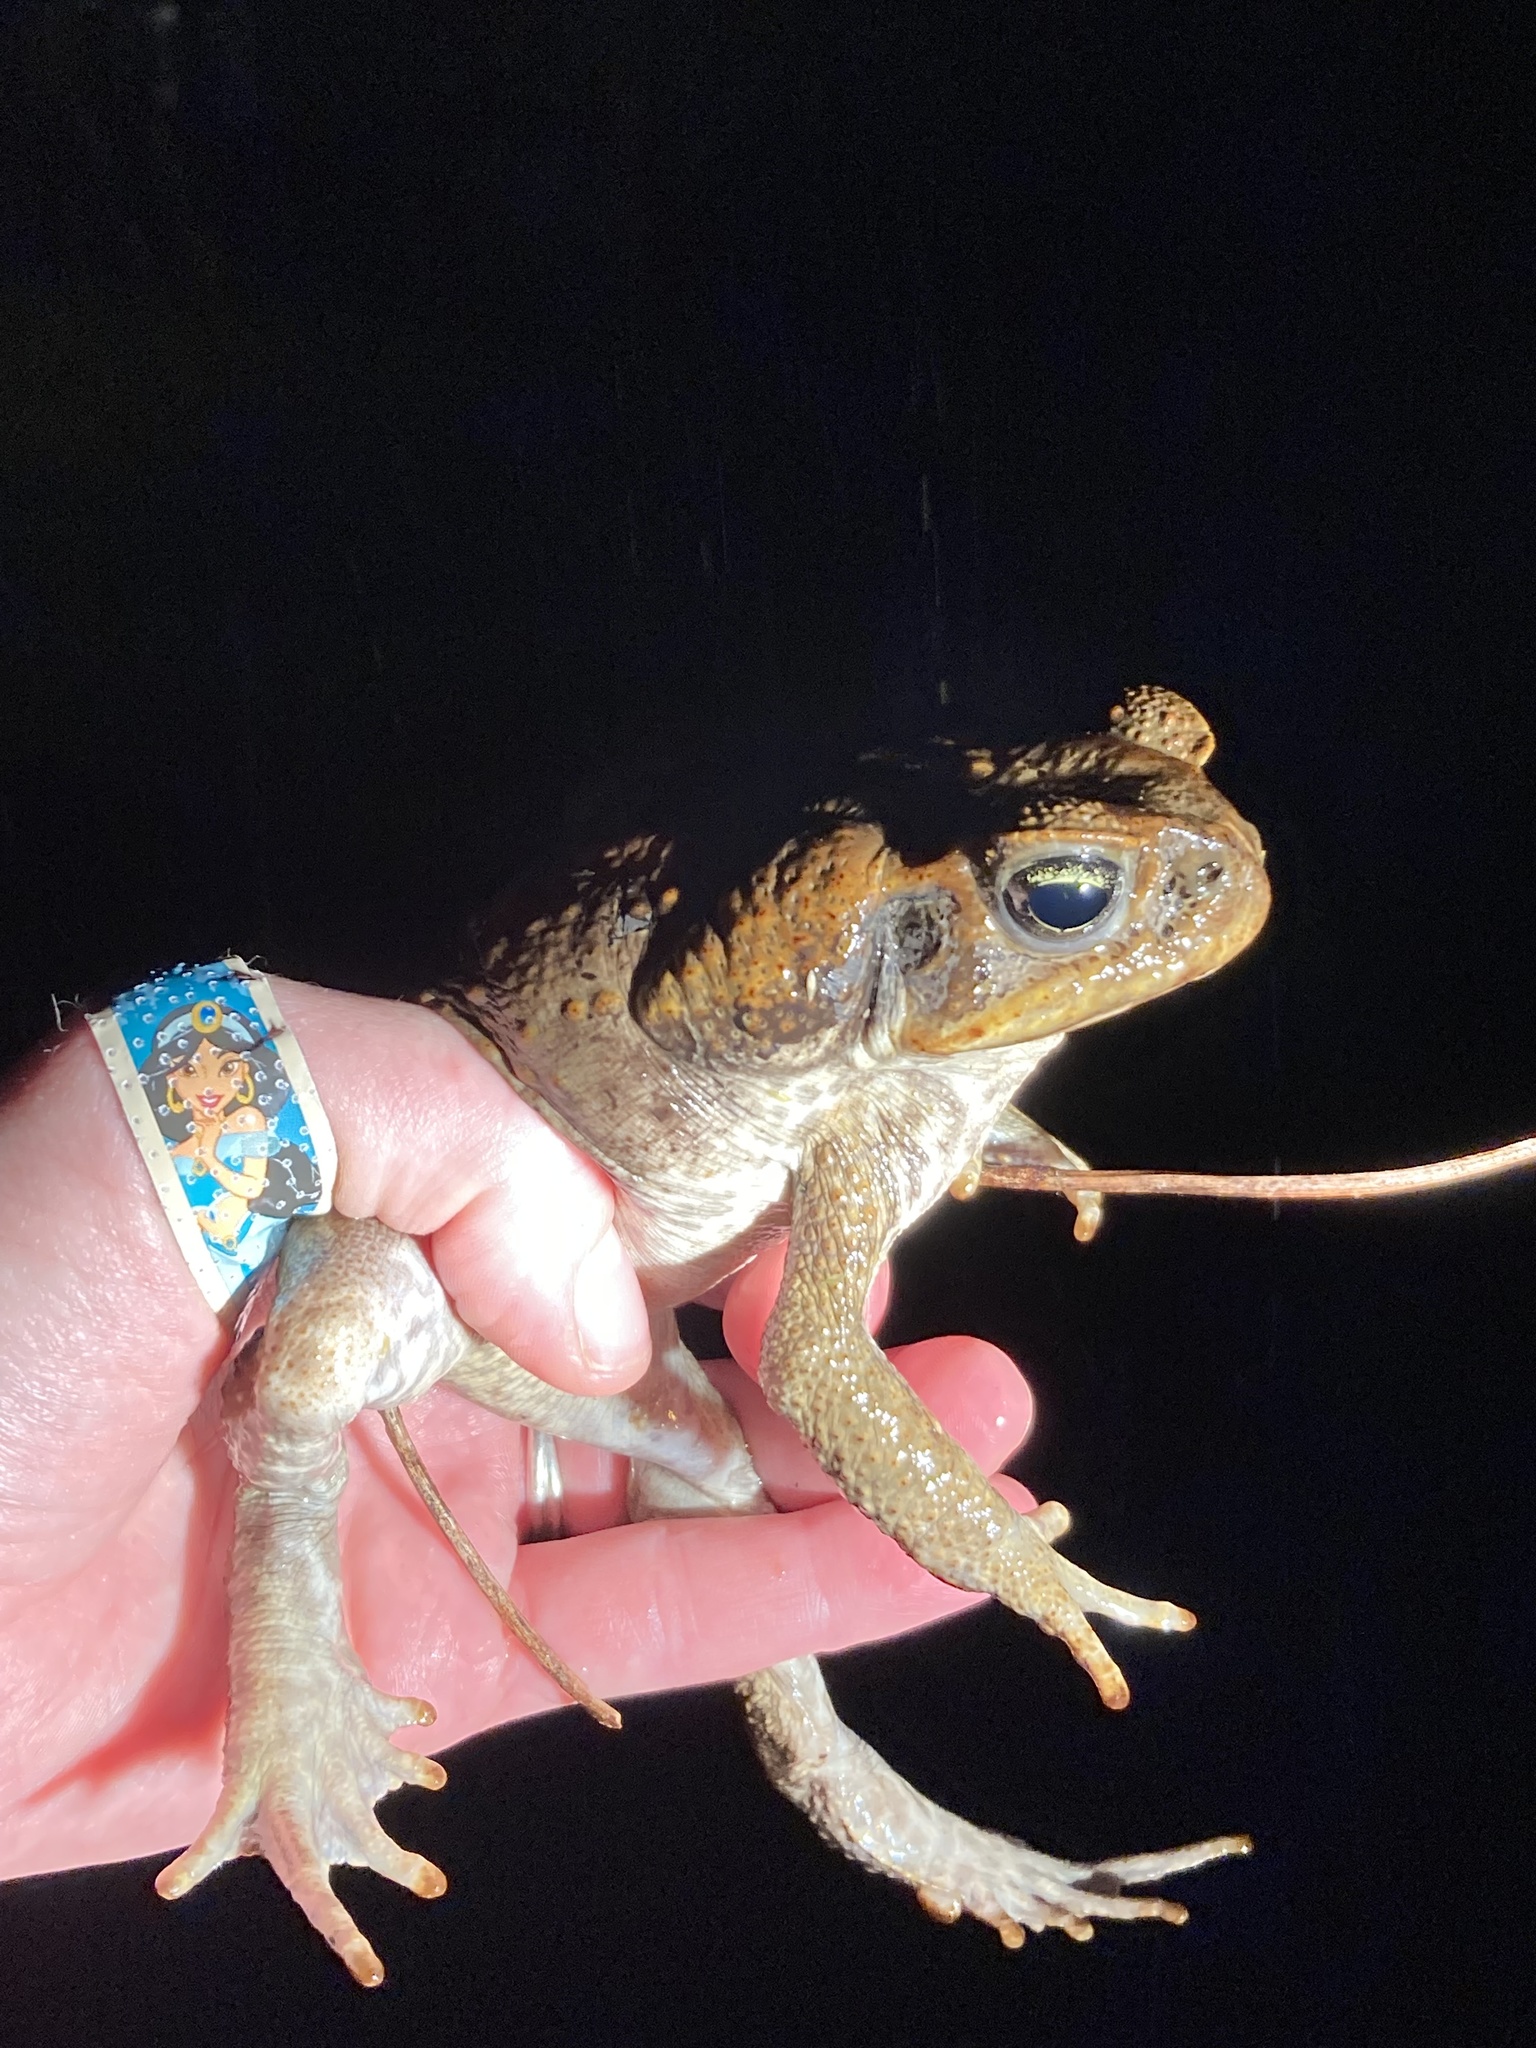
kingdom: Animalia
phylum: Chordata
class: Amphibia
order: Anura
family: Bufonidae
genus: Rhinella
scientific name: Rhinella marina
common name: Cane toad
